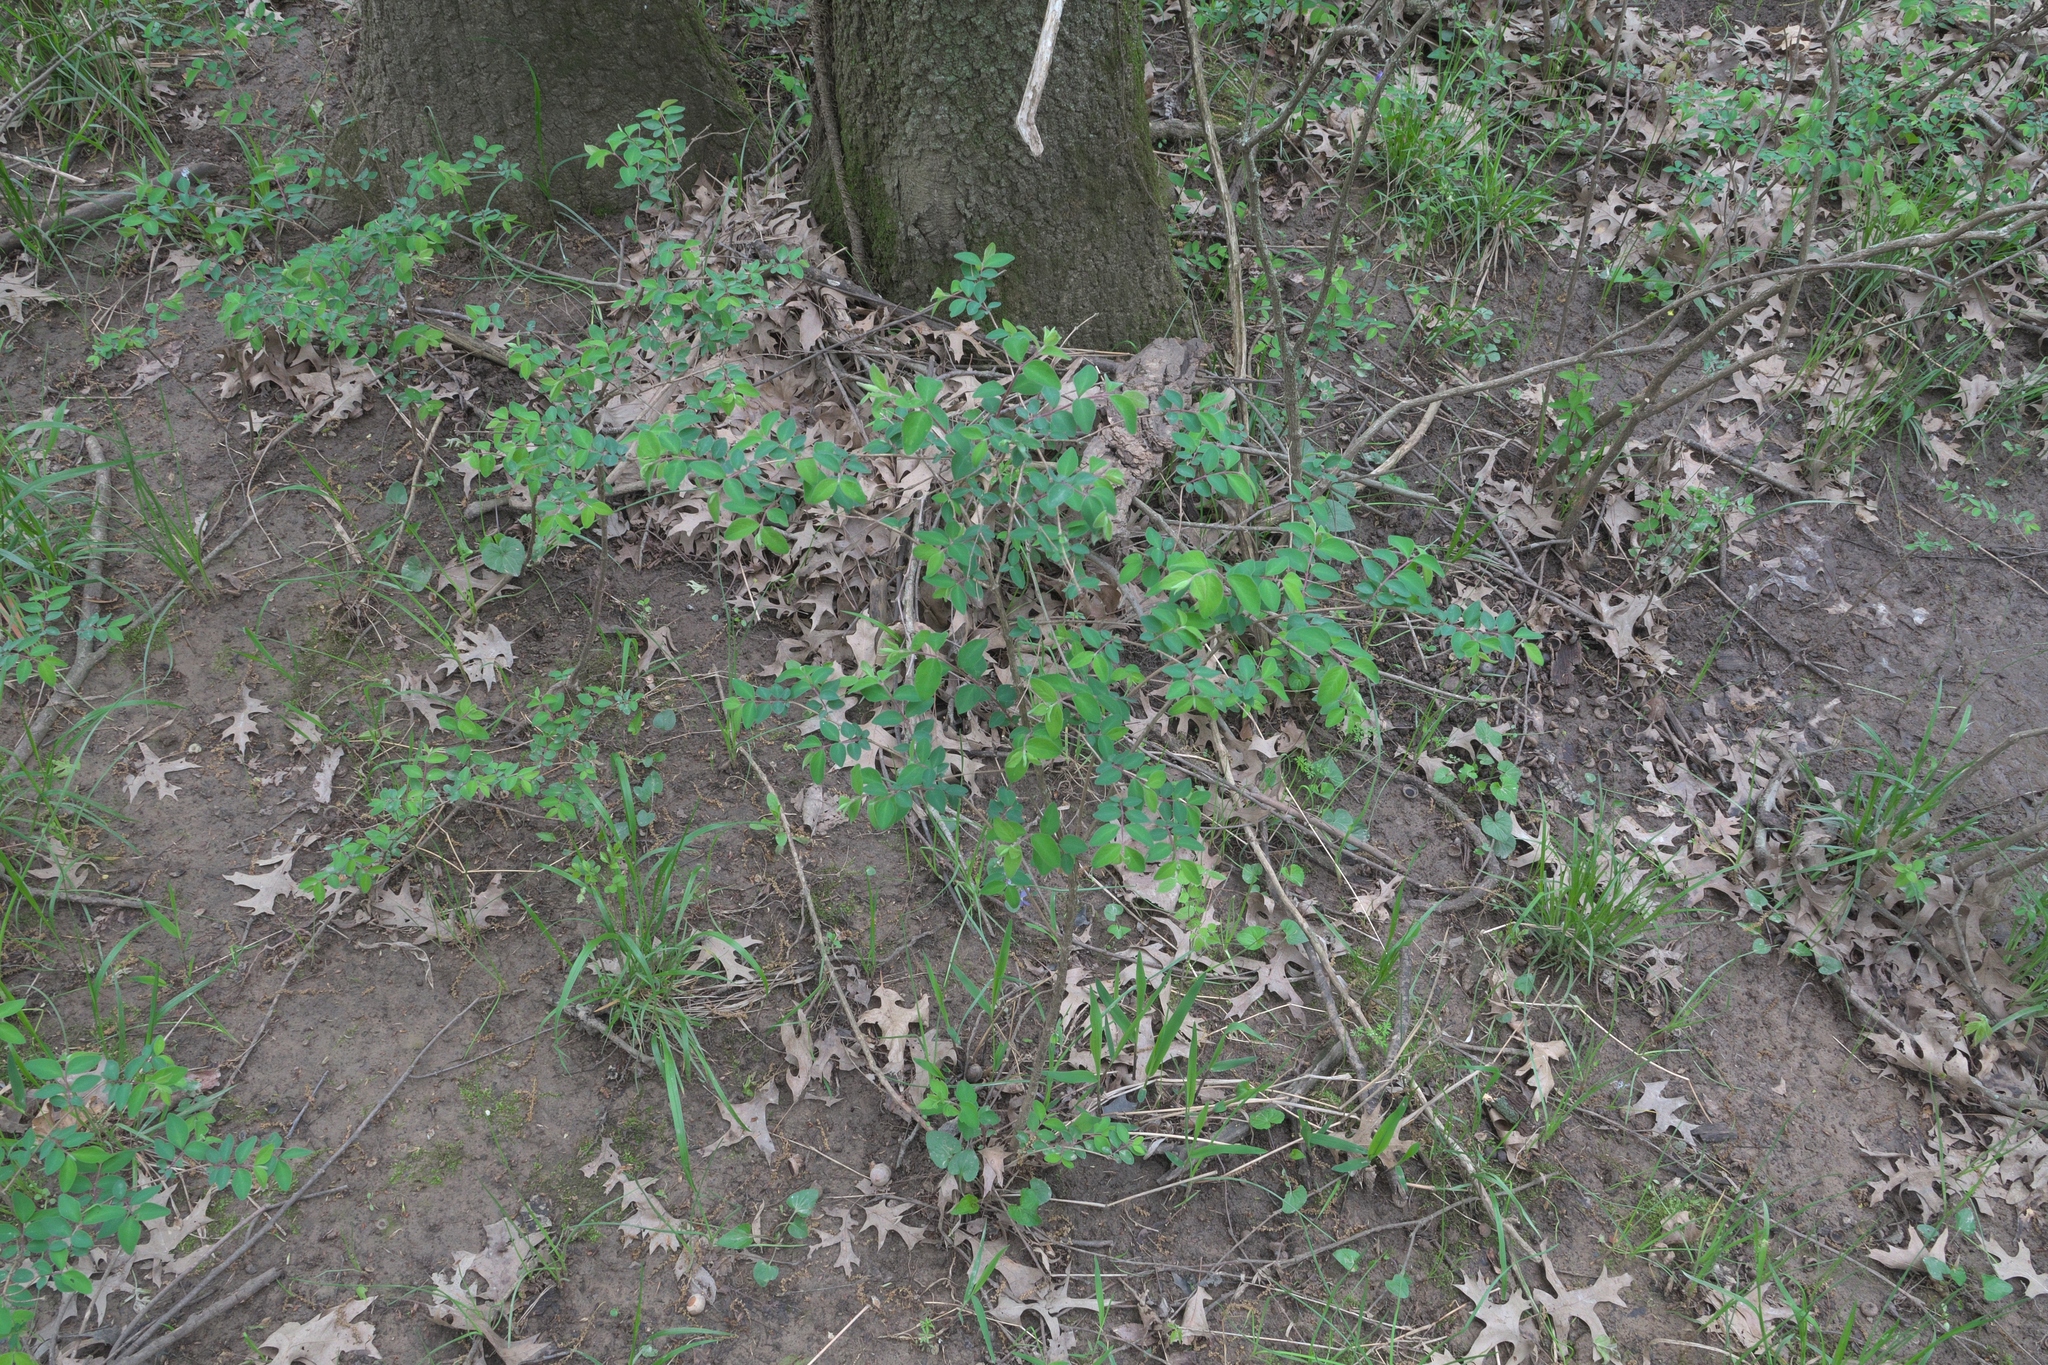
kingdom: Plantae
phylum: Tracheophyta
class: Magnoliopsida
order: Dipsacales
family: Caprifoliaceae
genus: Symphoricarpos
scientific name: Symphoricarpos orbiculatus
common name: Coralberry
